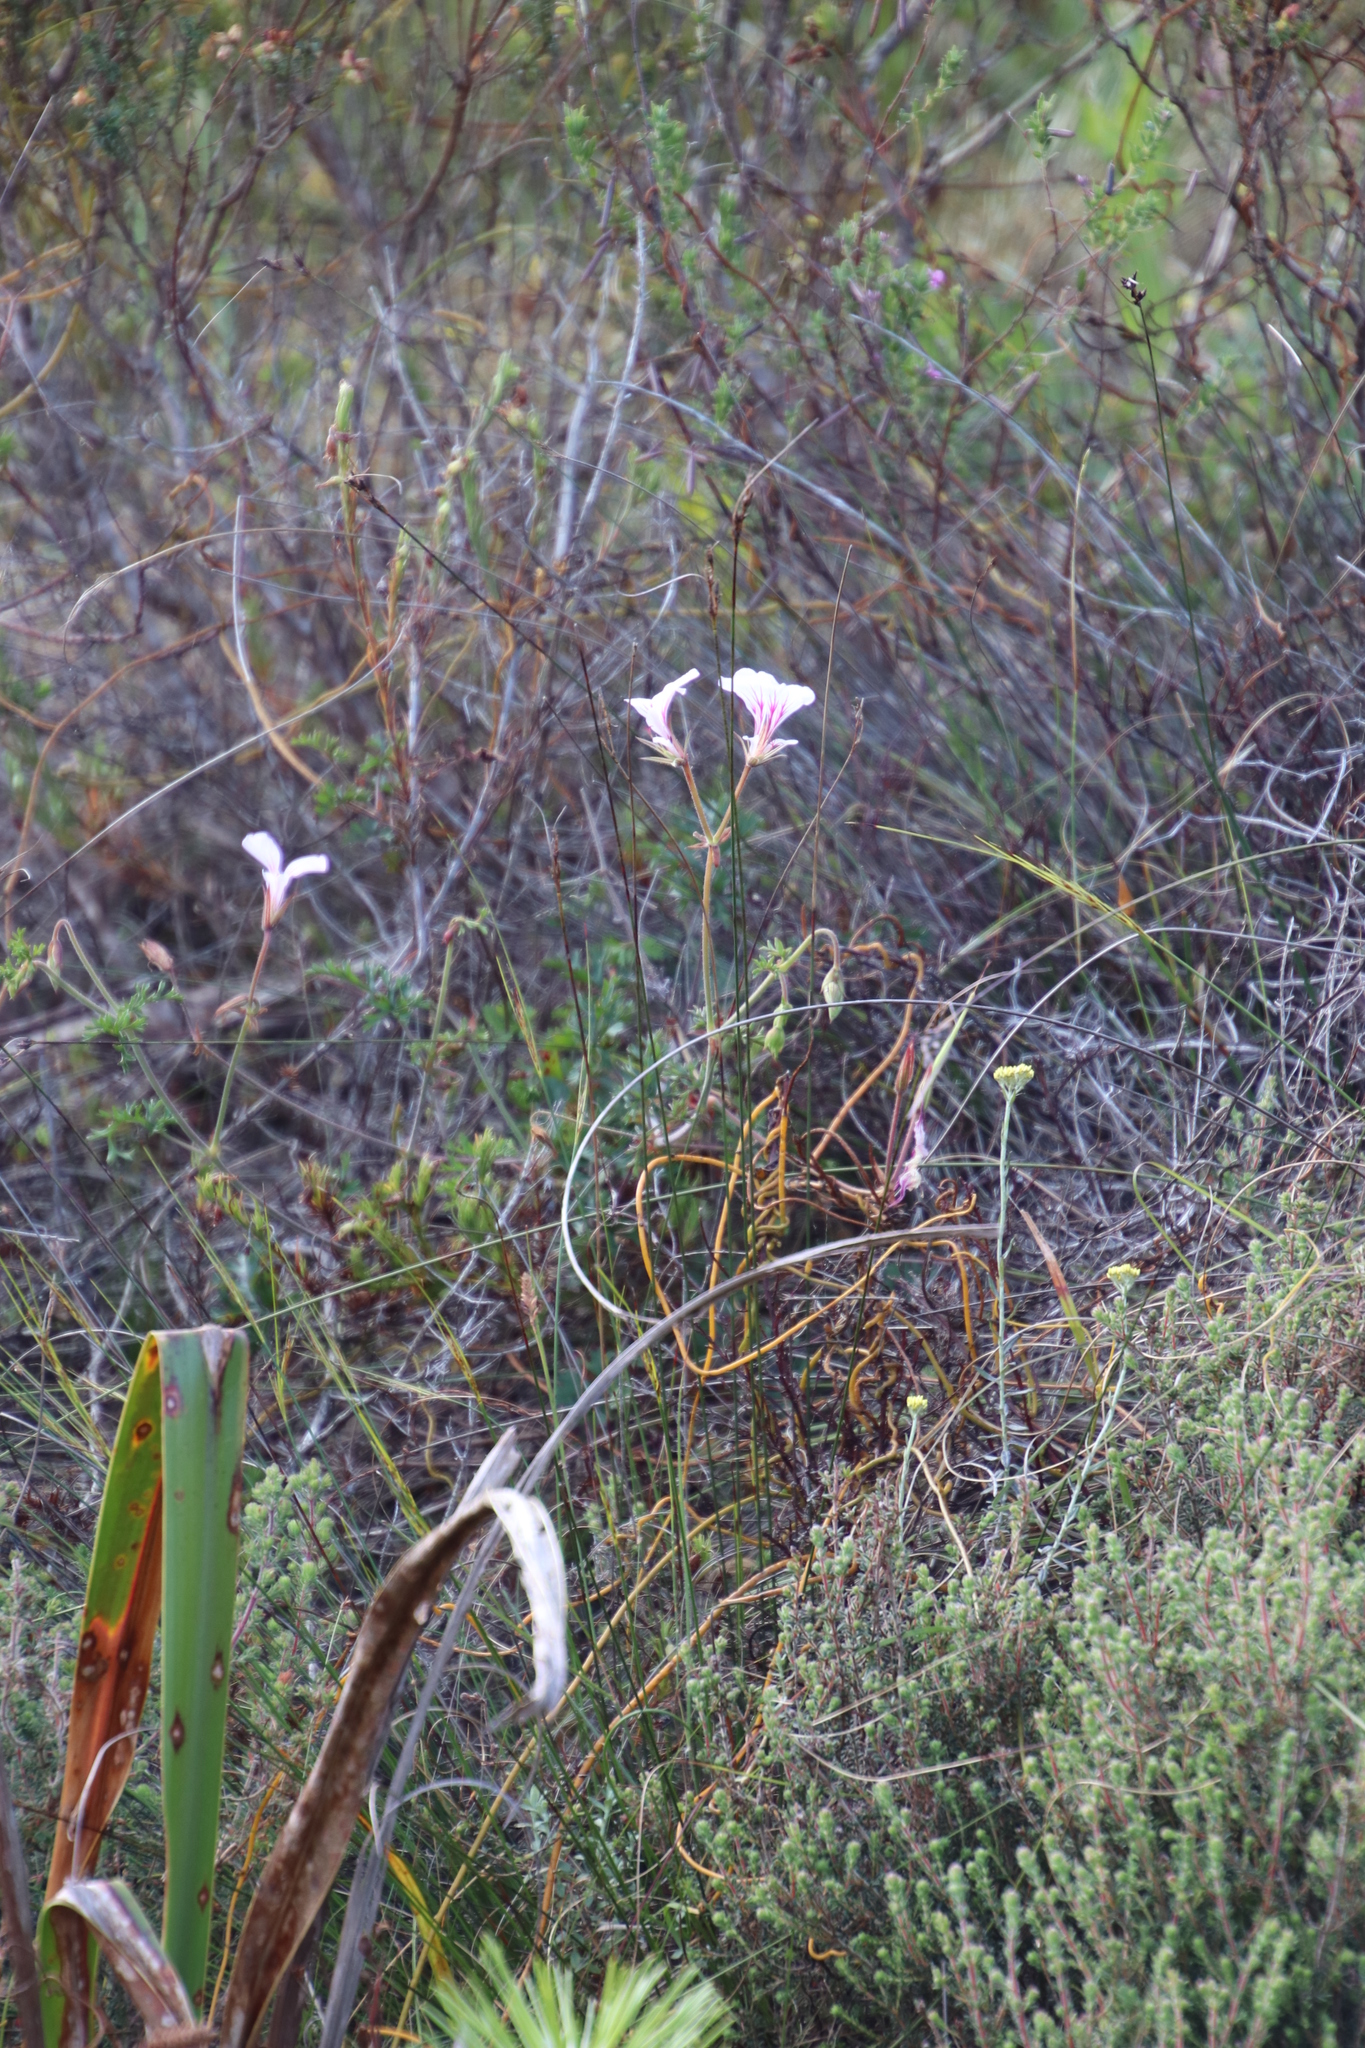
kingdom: Plantae
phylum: Tracheophyta
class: Magnoliopsida
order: Geraniales
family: Geraniaceae
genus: Pelargonium
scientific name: Pelargonium longicaule
